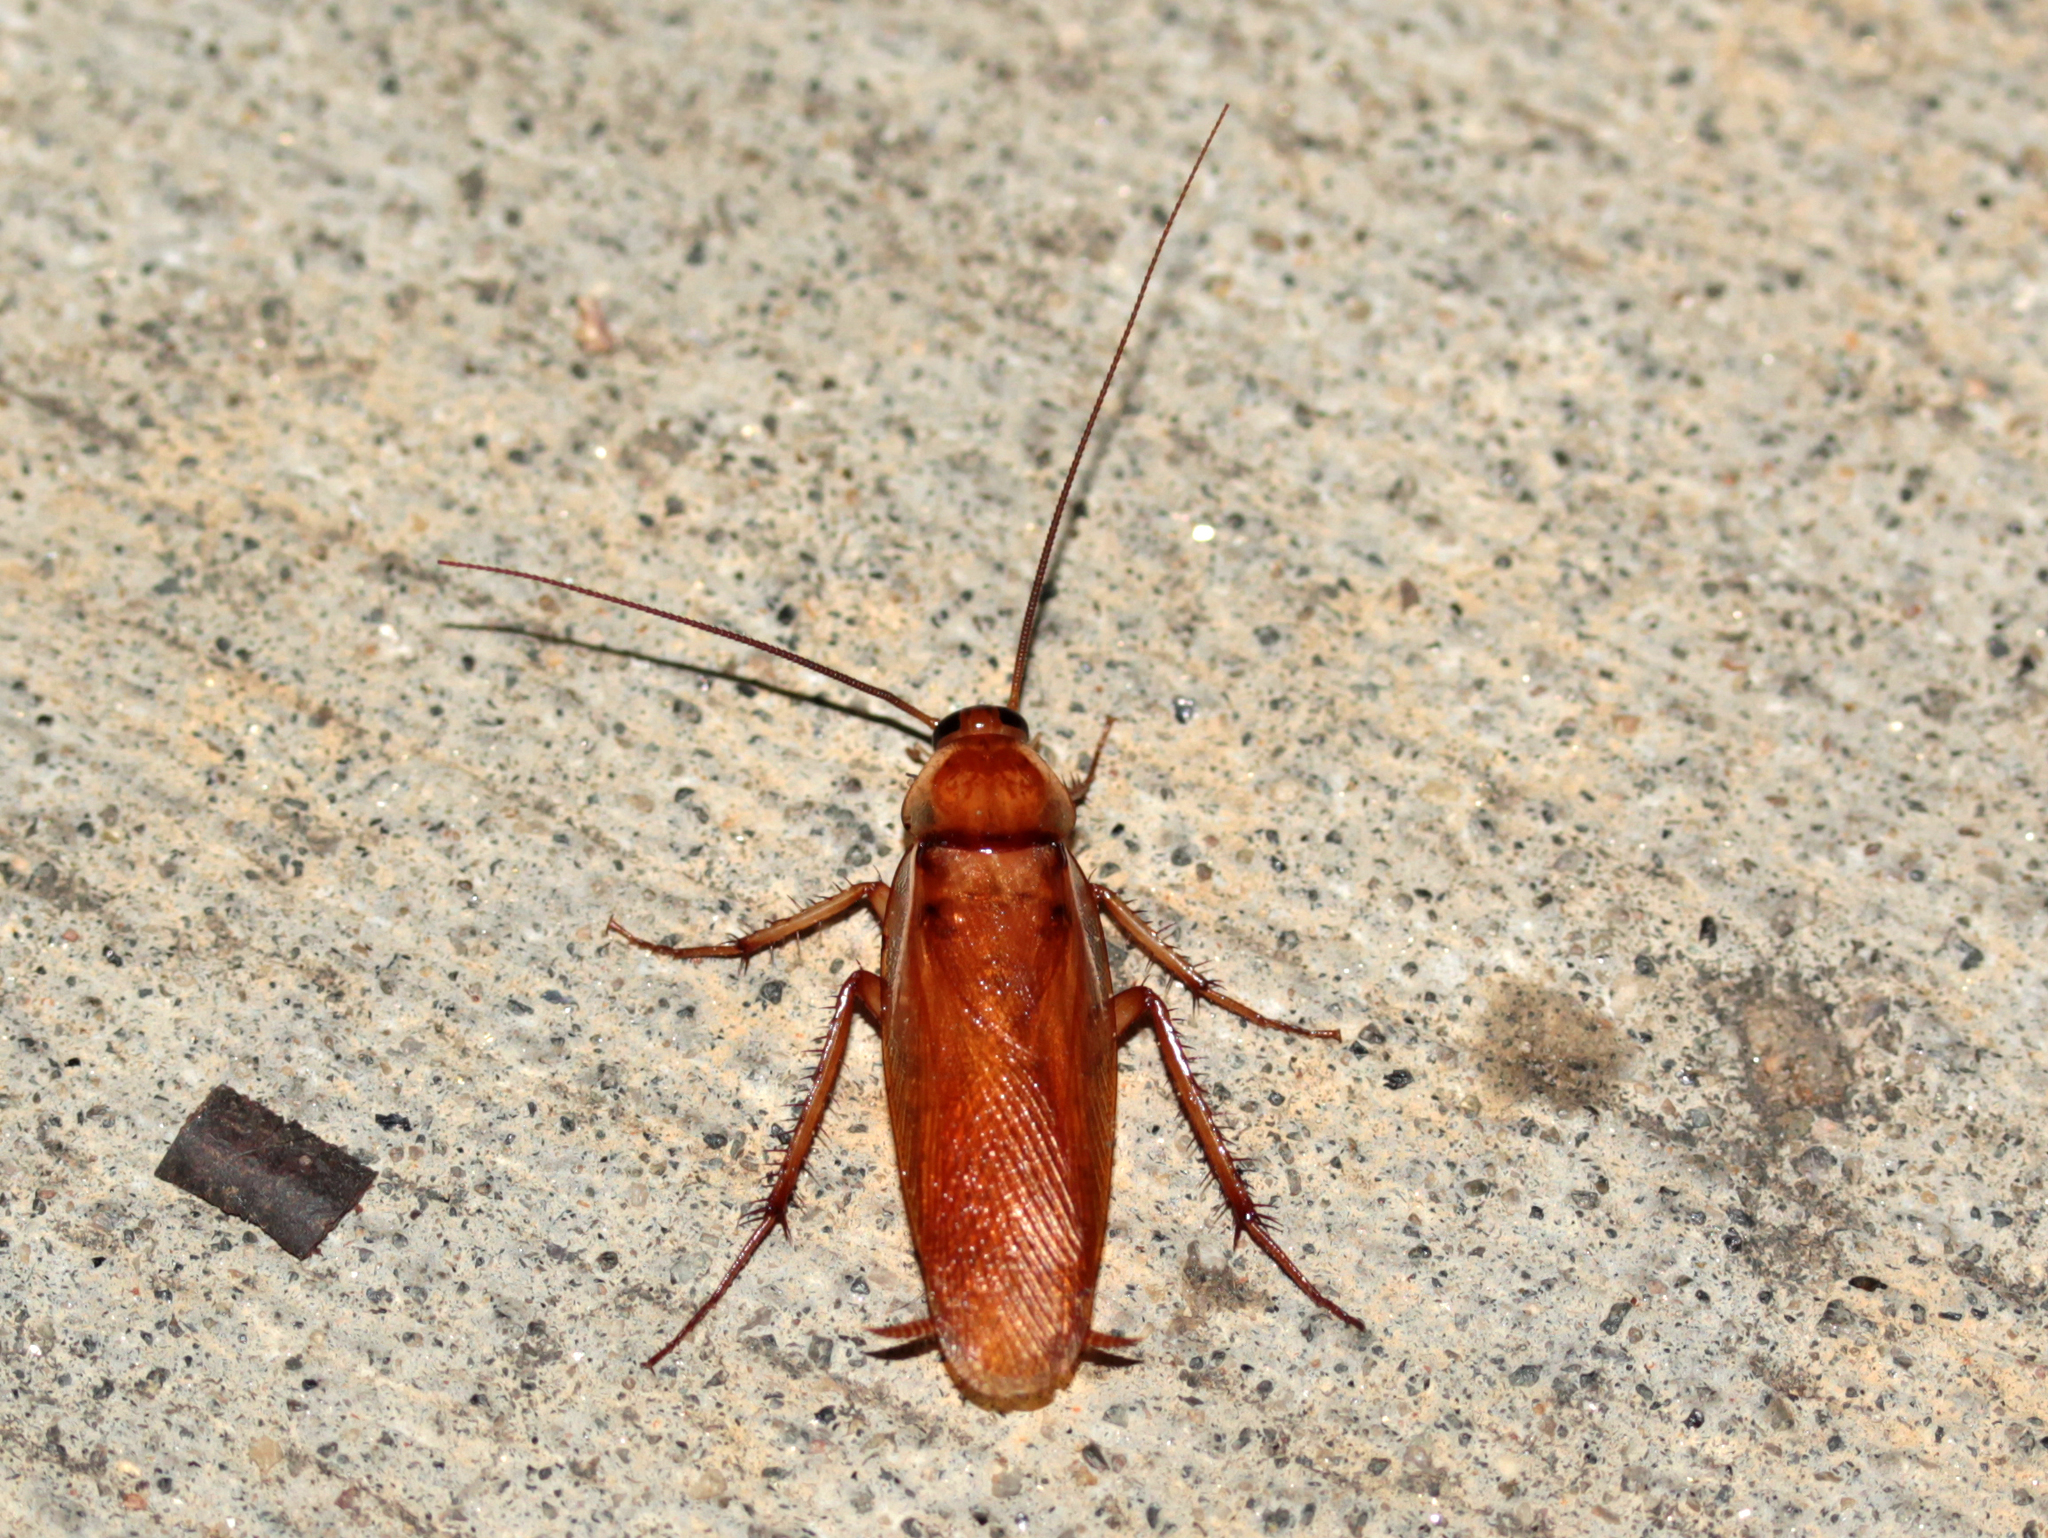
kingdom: Animalia
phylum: Arthropoda
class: Insecta
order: Blattodea
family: Blattidae
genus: Periplaneta
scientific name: Periplaneta lateralis
